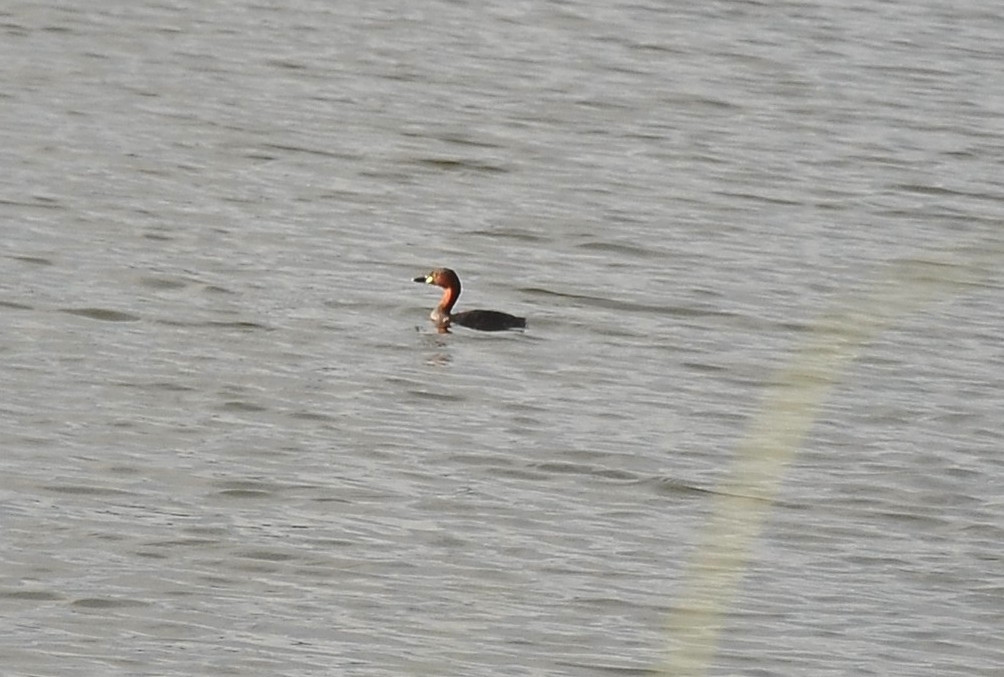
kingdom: Animalia
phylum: Chordata
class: Aves
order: Podicipediformes
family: Podicipedidae
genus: Tachybaptus
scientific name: Tachybaptus ruficollis
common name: Little grebe
